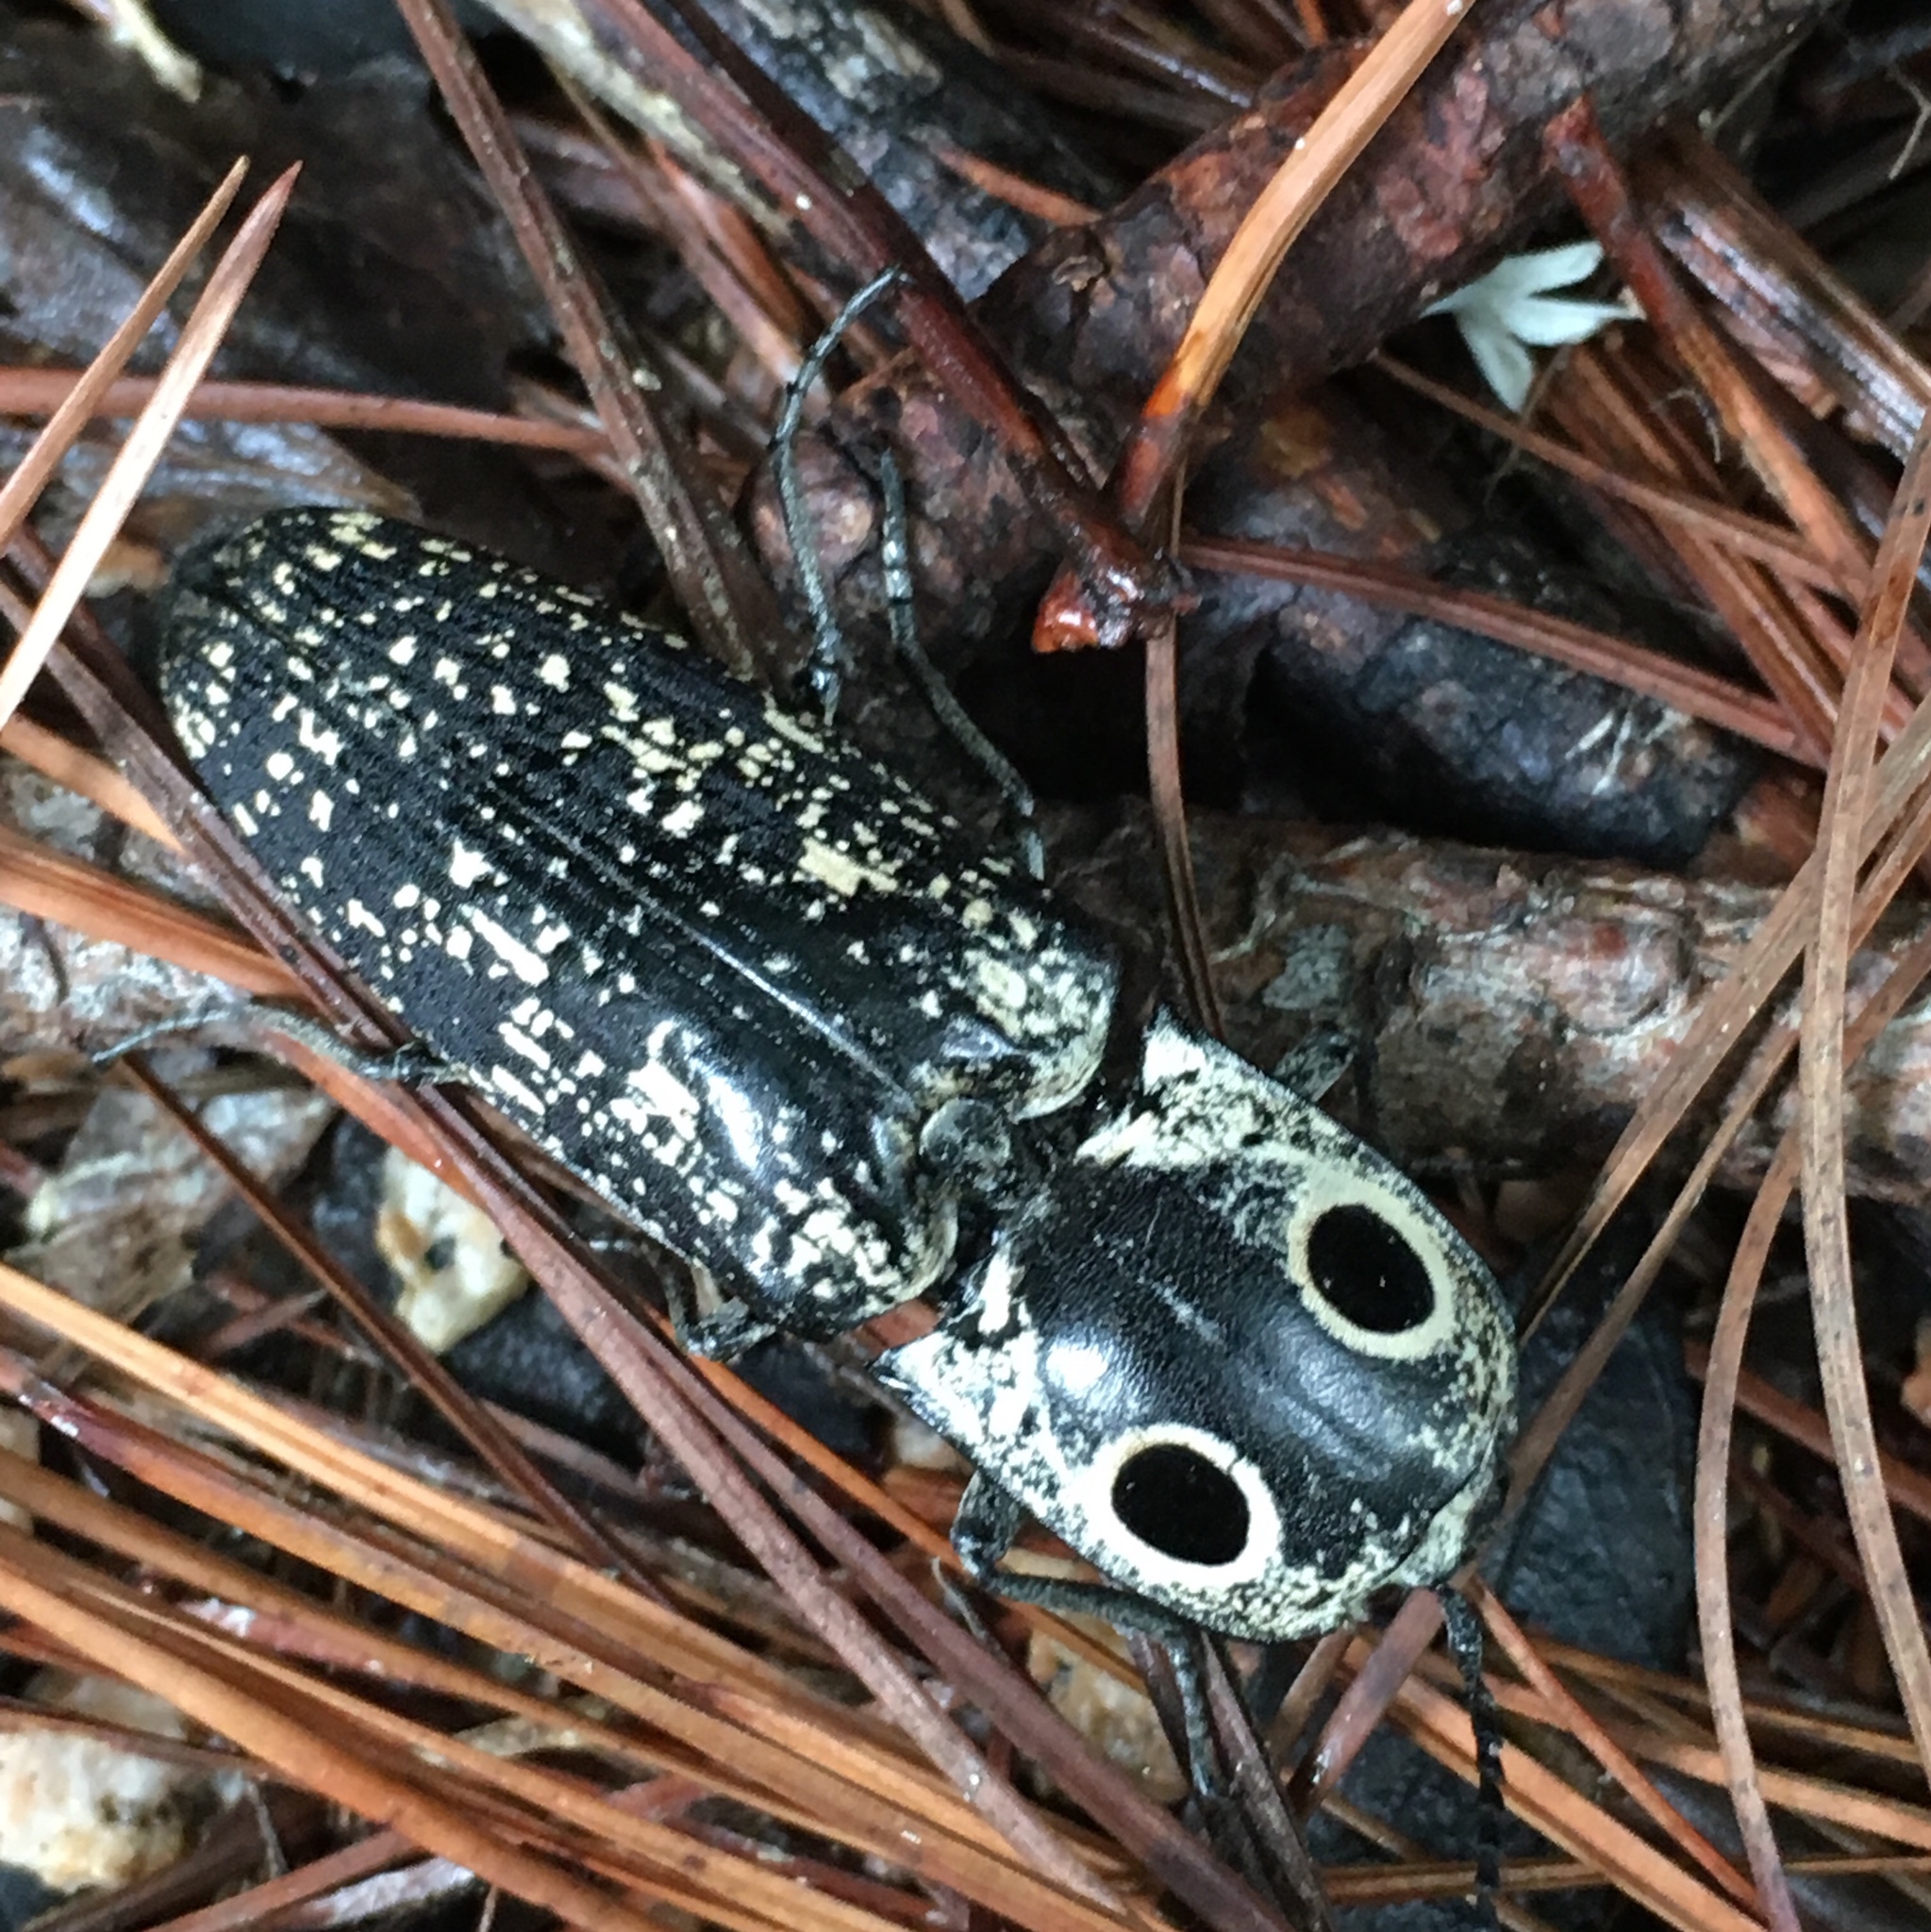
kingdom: Animalia
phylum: Arthropoda
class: Insecta
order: Coleoptera
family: Elateridae
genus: Alaus
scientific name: Alaus
